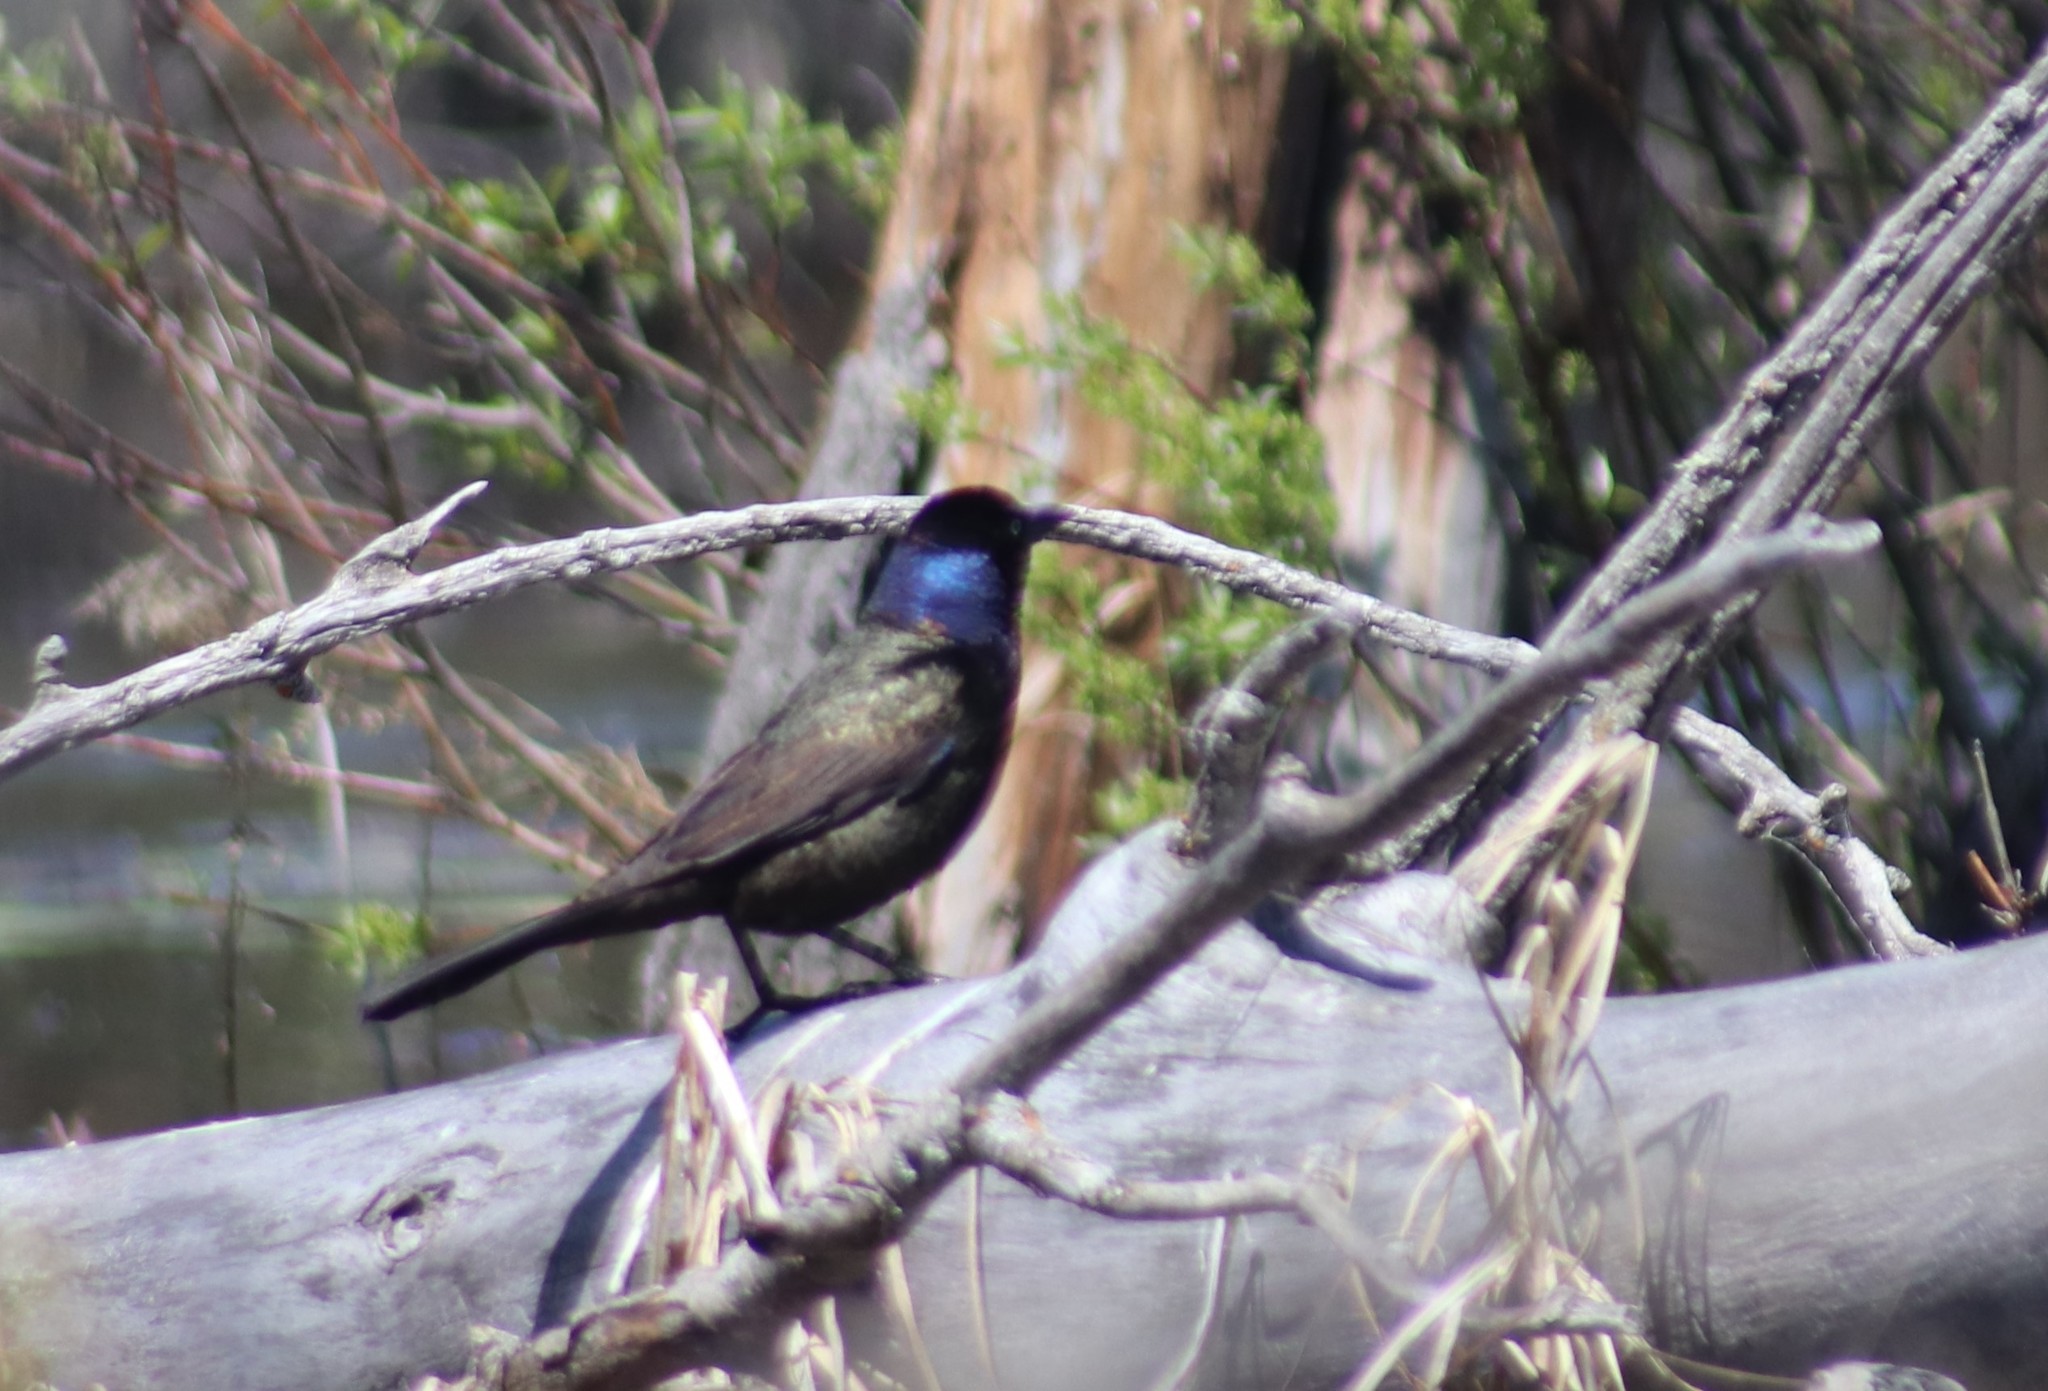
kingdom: Animalia
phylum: Chordata
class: Aves
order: Passeriformes
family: Icteridae
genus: Quiscalus
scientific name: Quiscalus quiscula
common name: Common grackle
